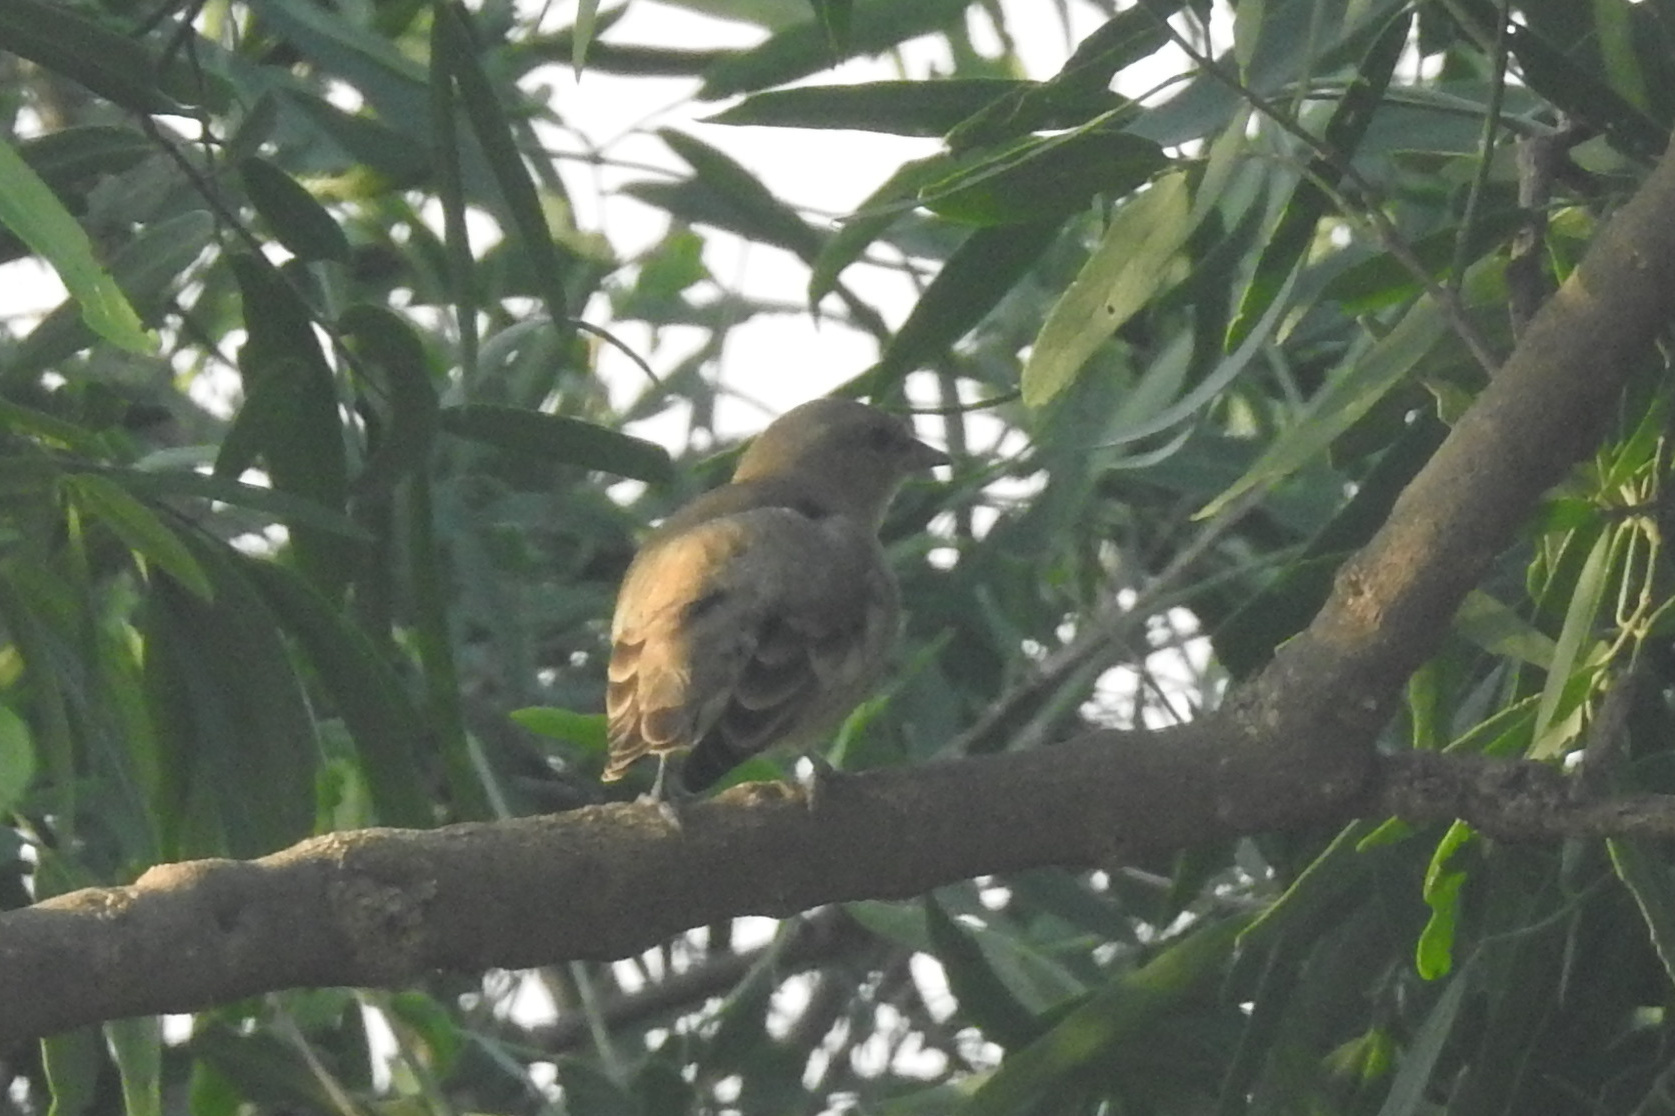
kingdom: Animalia
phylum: Chordata
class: Aves
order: Passeriformes
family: Passeridae
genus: Gymnoris
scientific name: Gymnoris xanthocollis
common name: Yellow-throated sparrow
